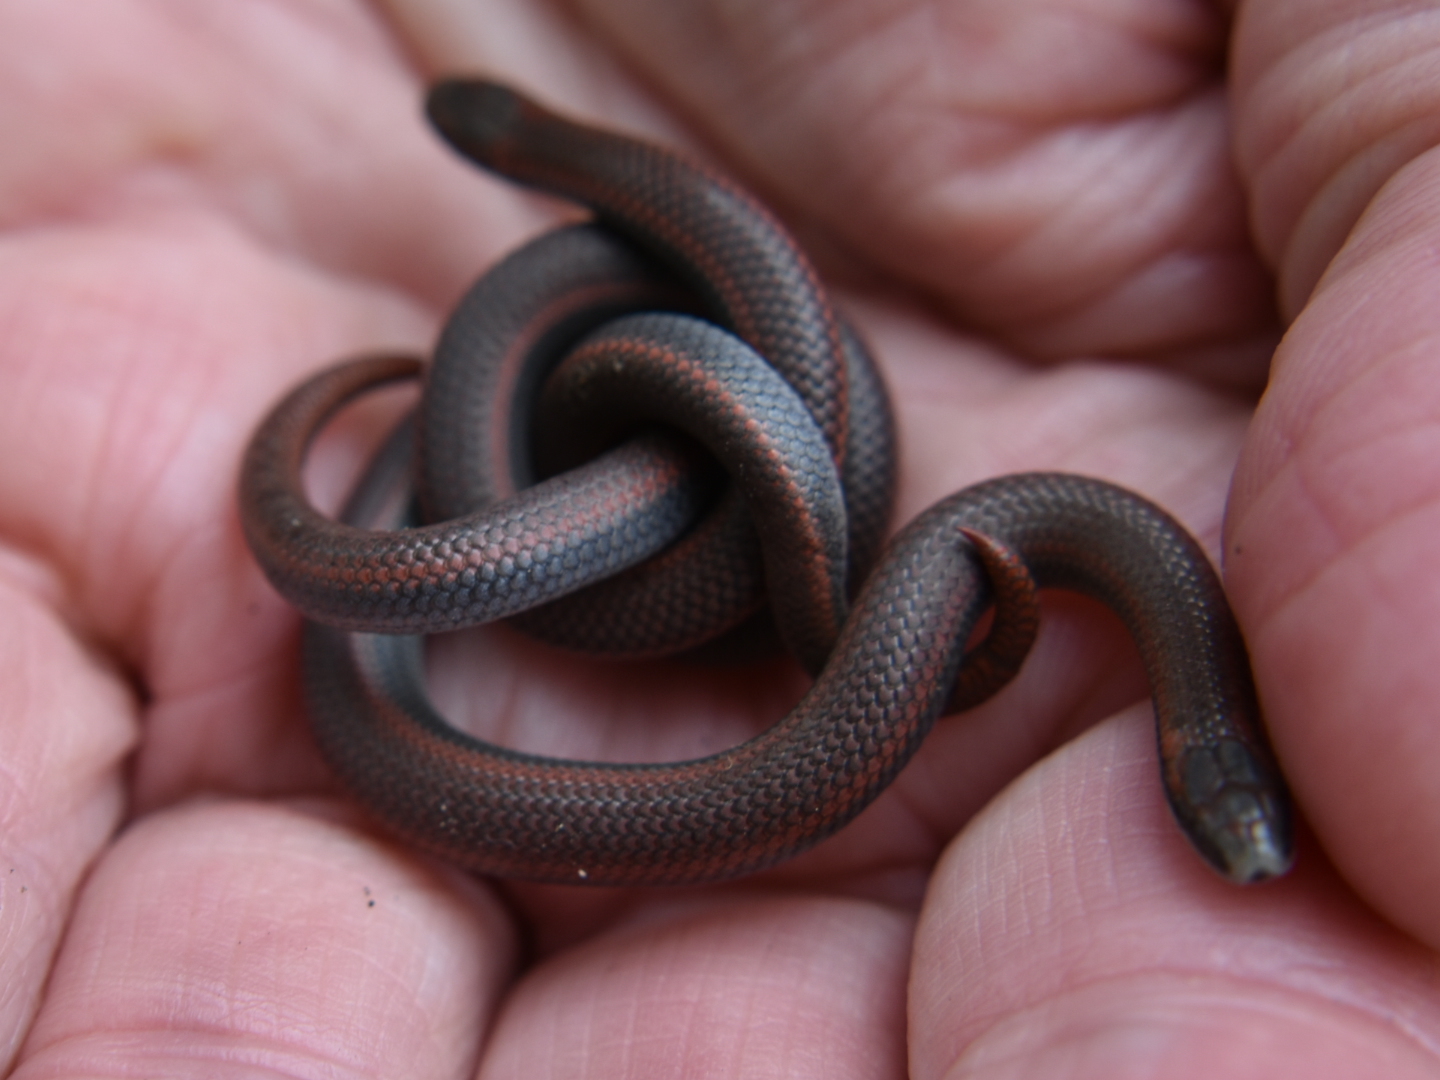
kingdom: Animalia
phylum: Chordata
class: Squamata
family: Colubridae
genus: Contia
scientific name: Contia tenuis
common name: Sharptail snake
